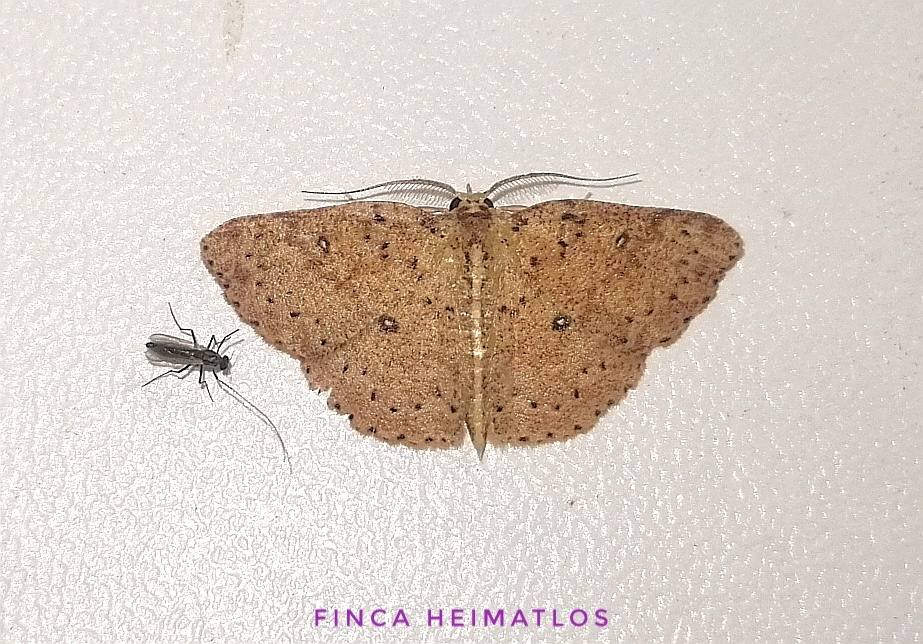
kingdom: Animalia
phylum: Arthropoda
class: Insecta
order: Lepidoptera
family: Geometridae
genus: Cyclophora
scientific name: Cyclophora
